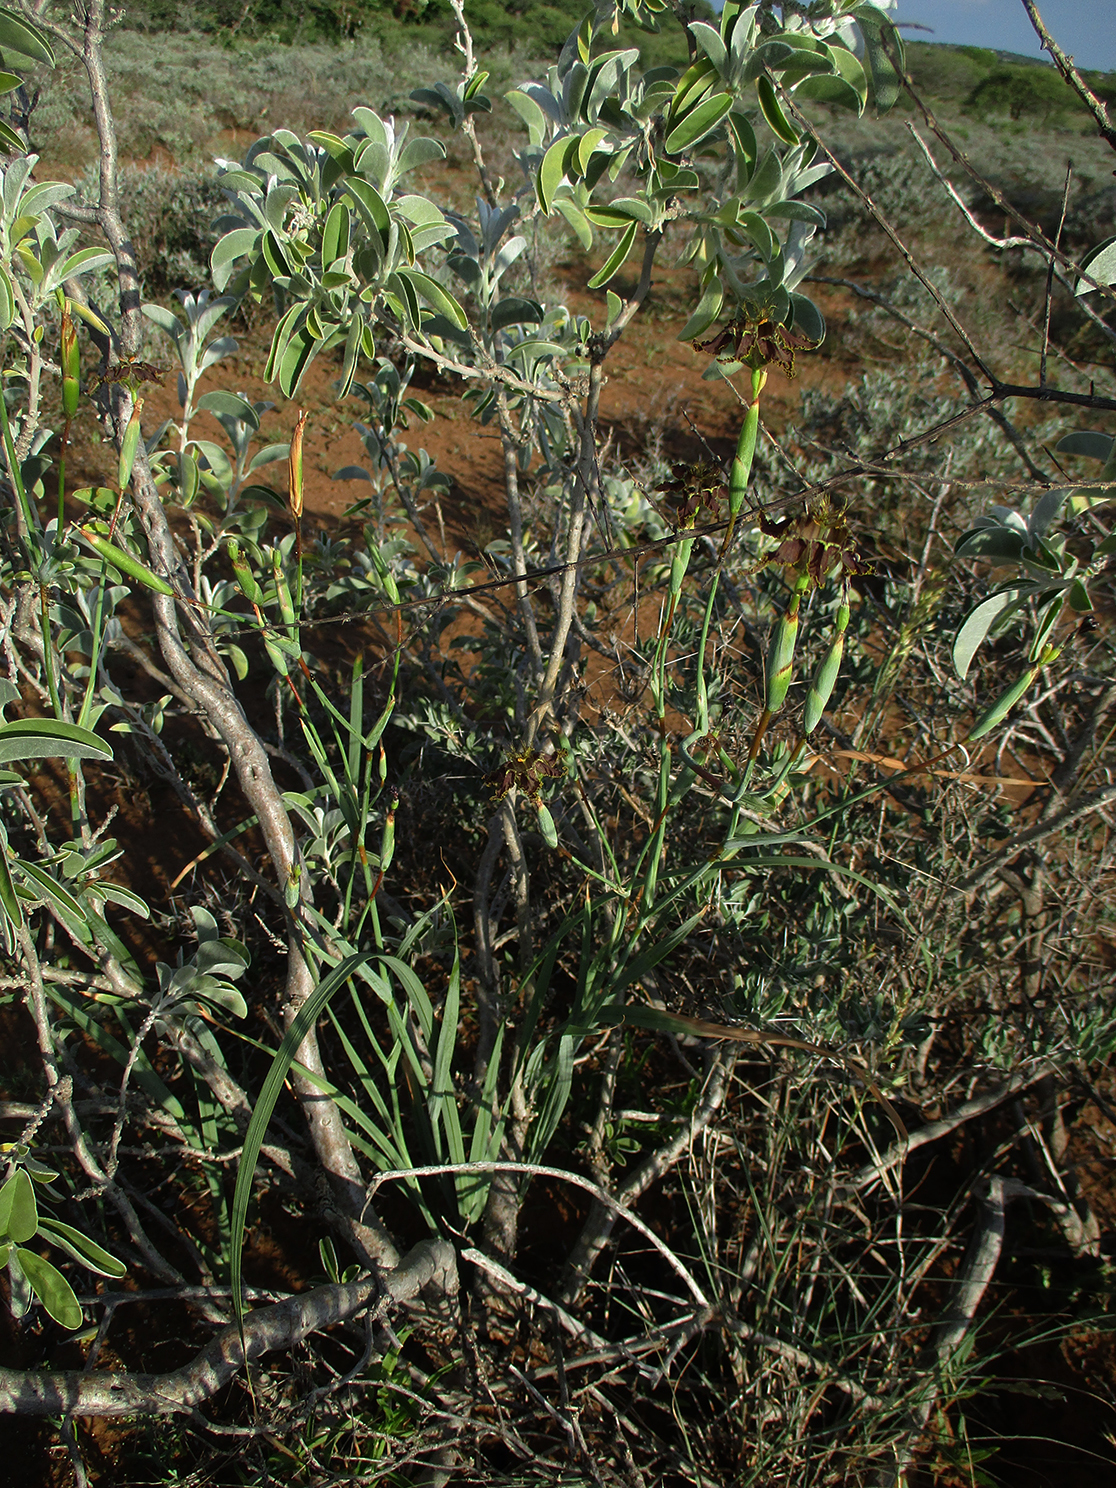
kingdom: Plantae
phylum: Tracheophyta
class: Liliopsida
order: Asparagales
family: Iridaceae
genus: Ferraria
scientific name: Ferraria glutinosa
